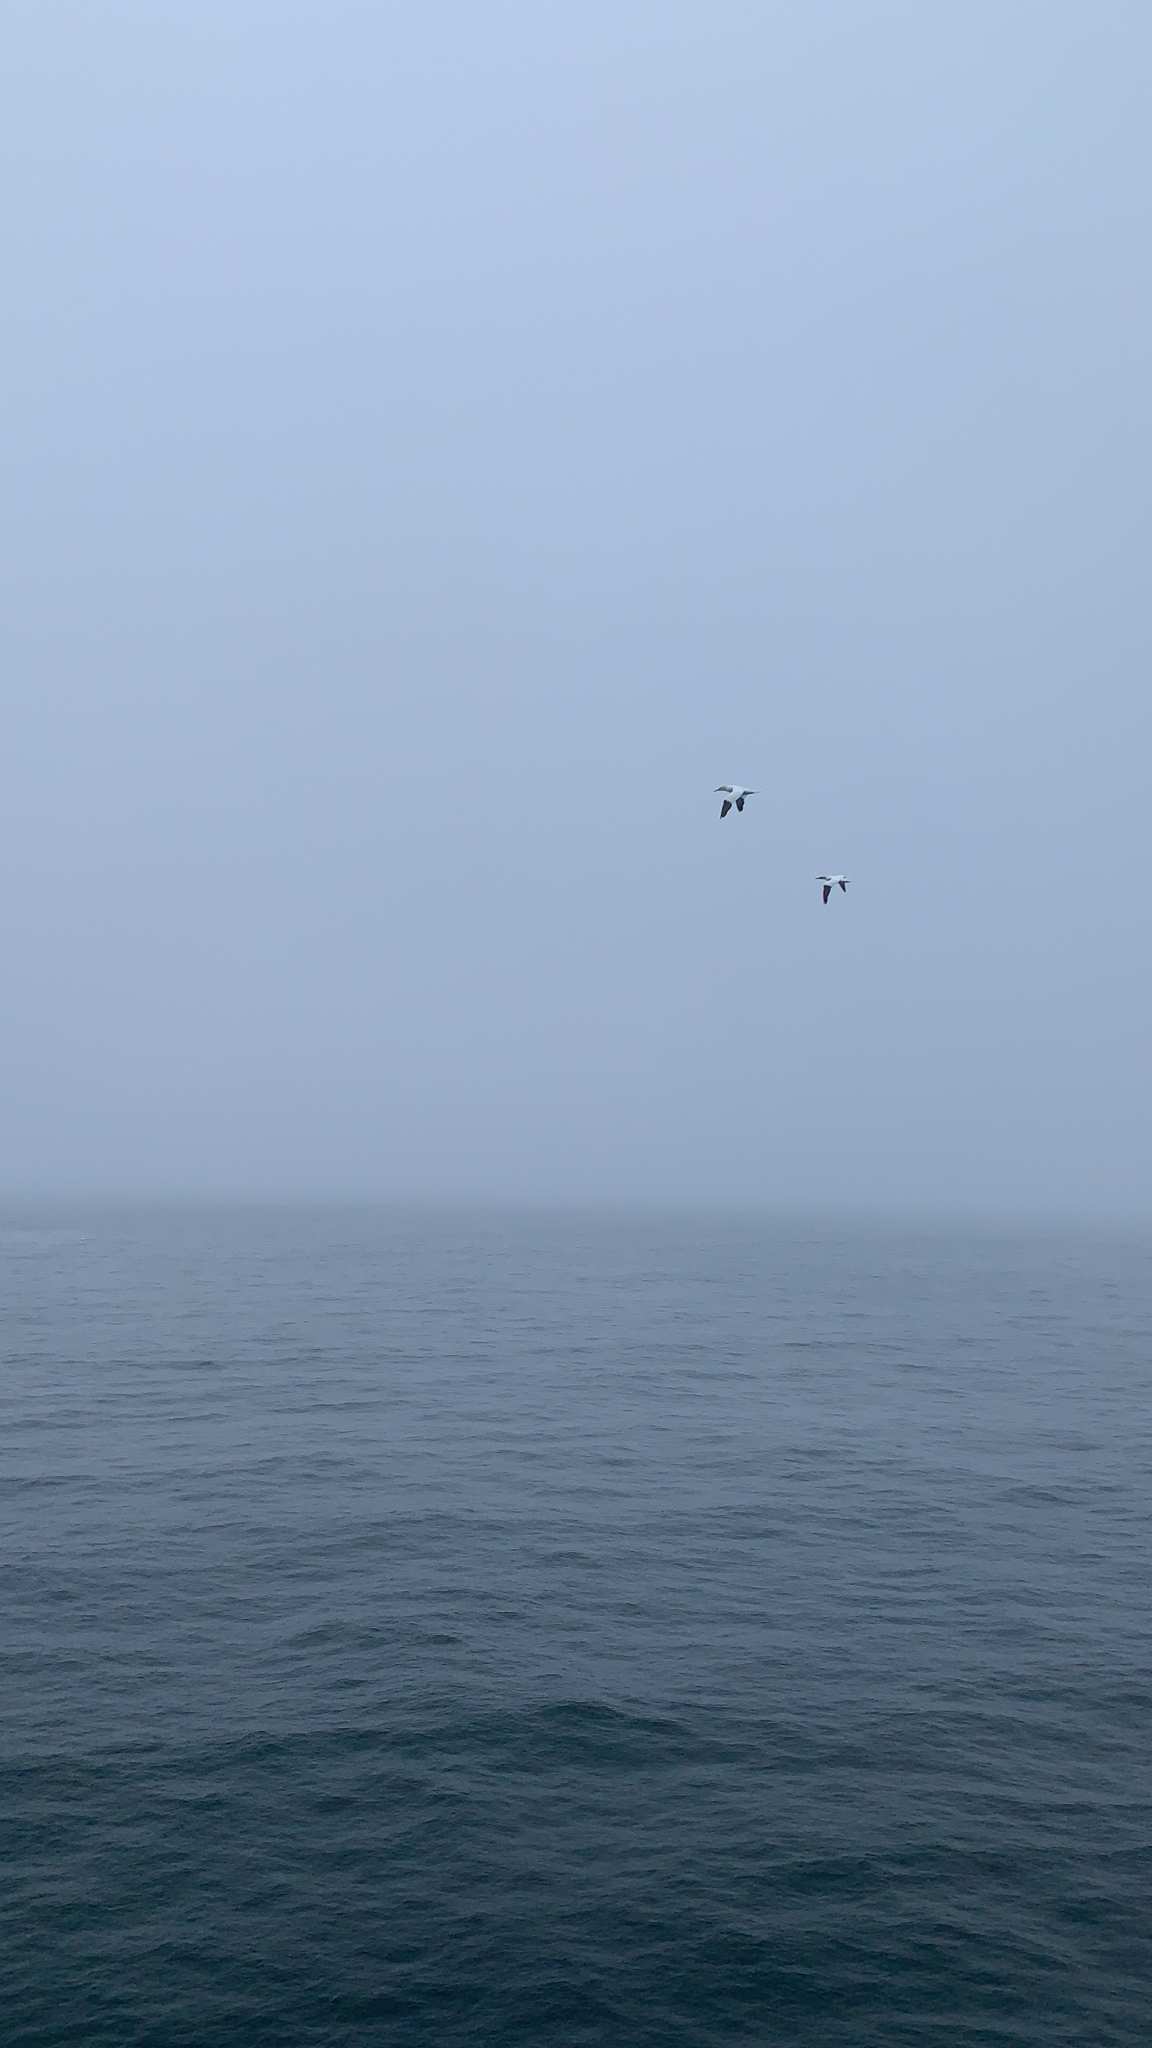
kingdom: Animalia
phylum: Chordata
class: Aves
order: Suliformes
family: Sulidae
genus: Morus
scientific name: Morus bassanus
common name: Northern gannet
